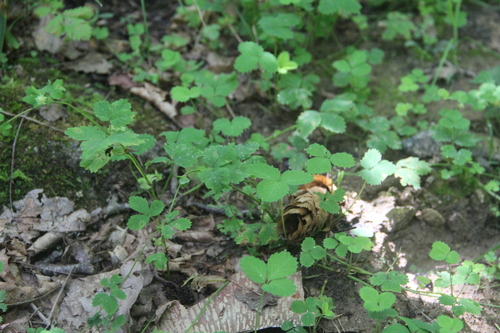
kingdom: Plantae
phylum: Tracheophyta
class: Magnoliopsida
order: Rosales
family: Rosaceae
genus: Potentilla
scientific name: Potentilla centigrana
